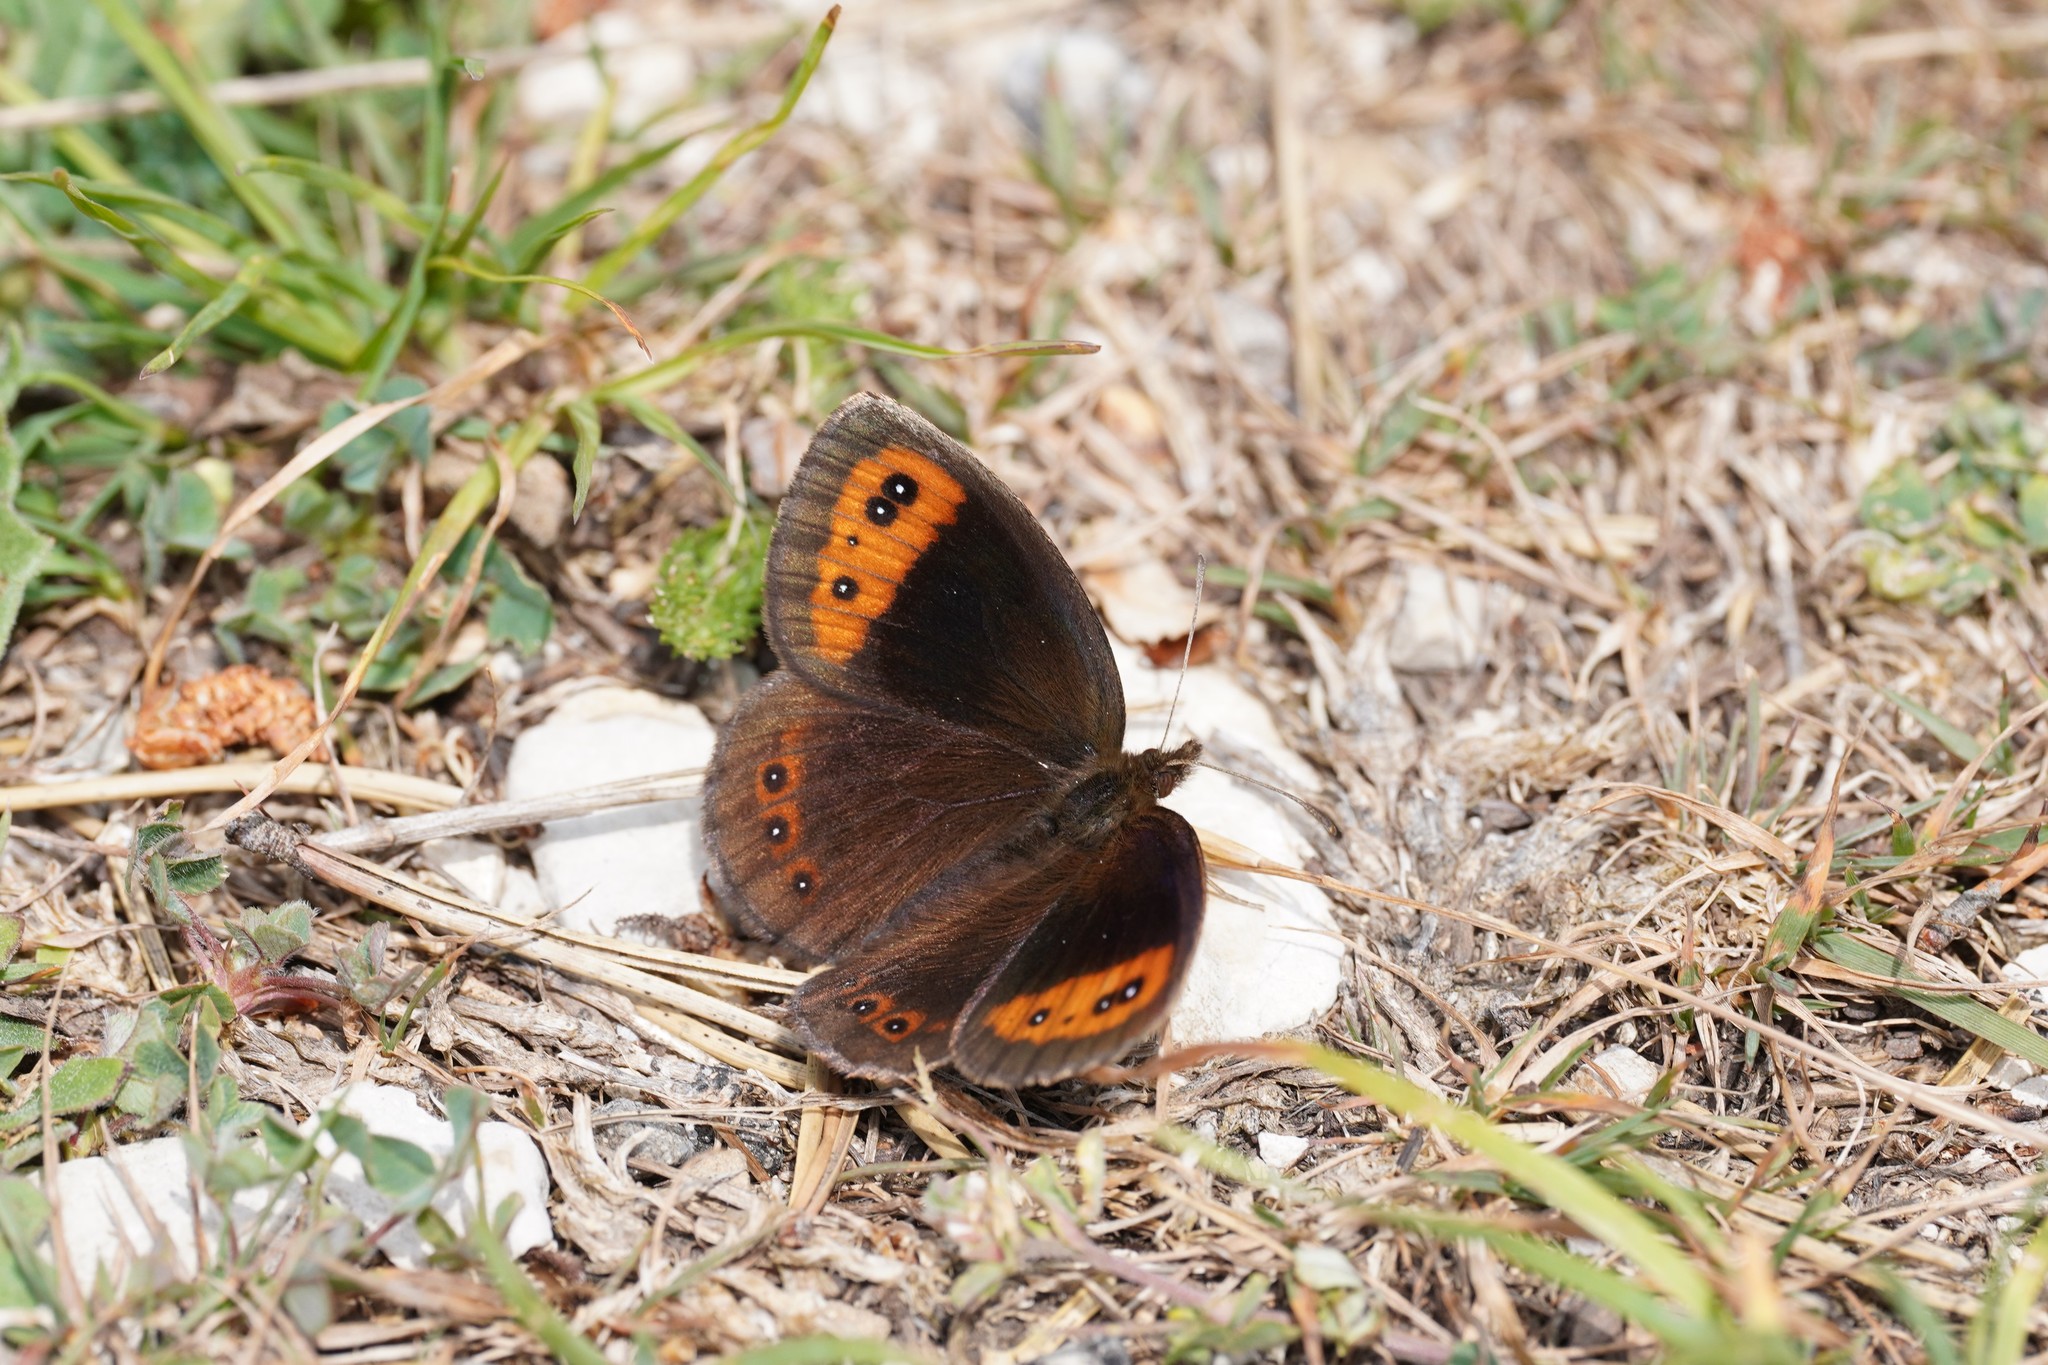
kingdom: Animalia
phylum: Arthropoda
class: Insecta
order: Lepidoptera
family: Nymphalidae
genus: Erebia
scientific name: Erebia neoridas
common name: Autumn ringlet
